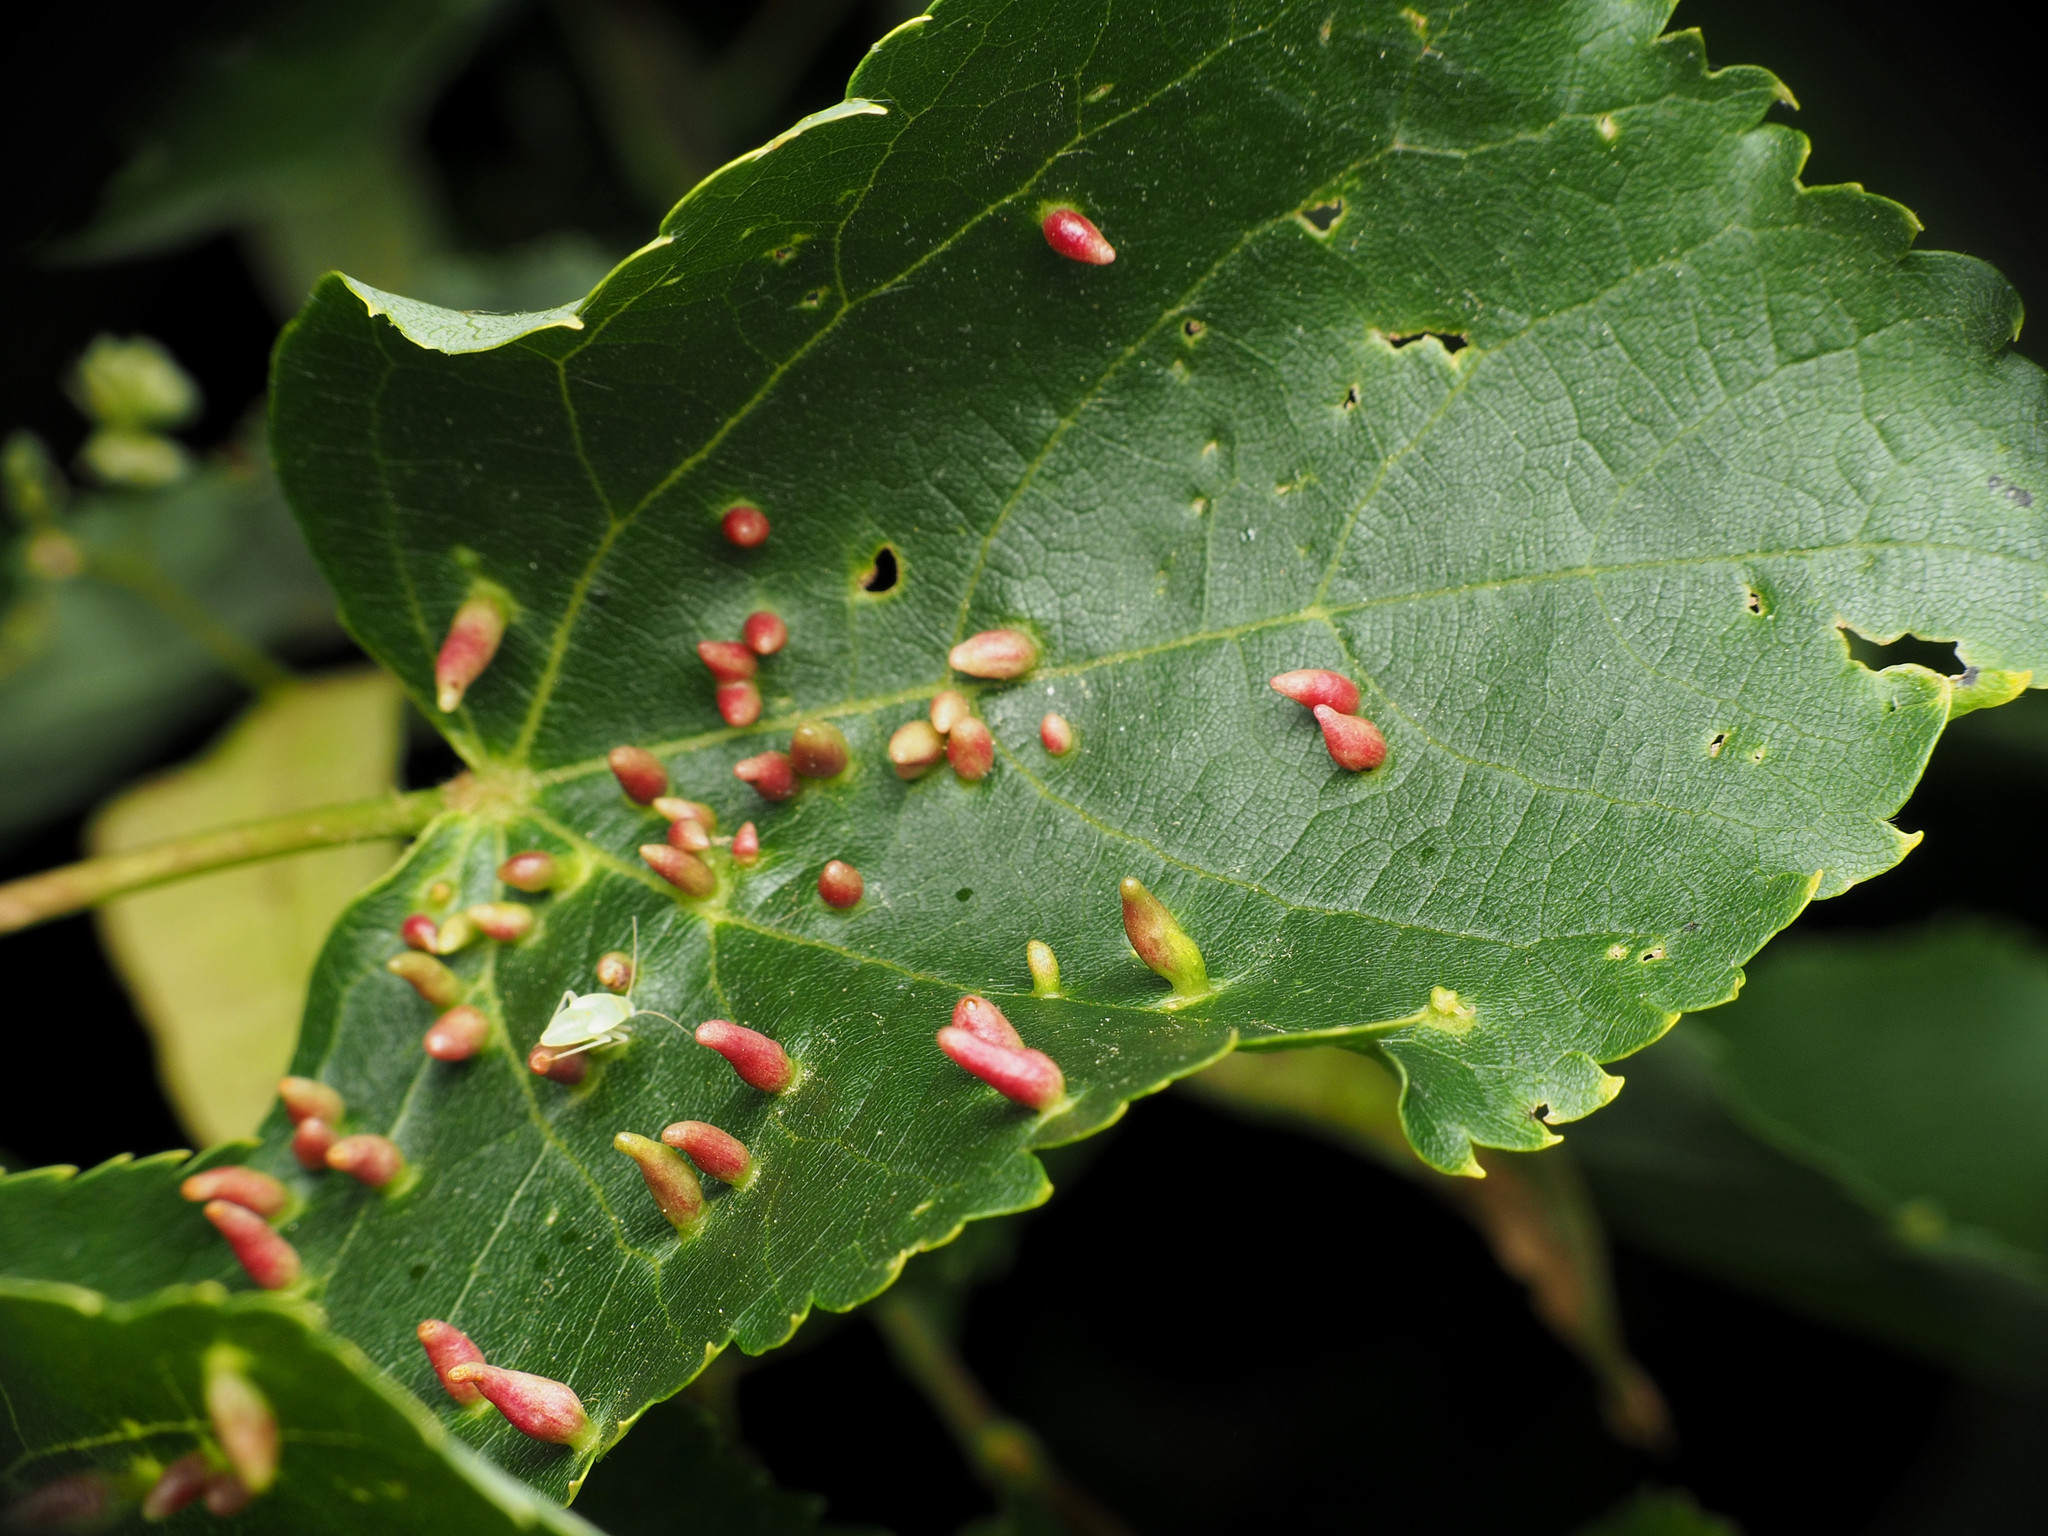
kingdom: Animalia
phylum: Arthropoda
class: Arachnida
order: Trombidiformes
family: Eriophyidae
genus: Eriophyes
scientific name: Eriophyes tiliae
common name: Red nail gall mite
